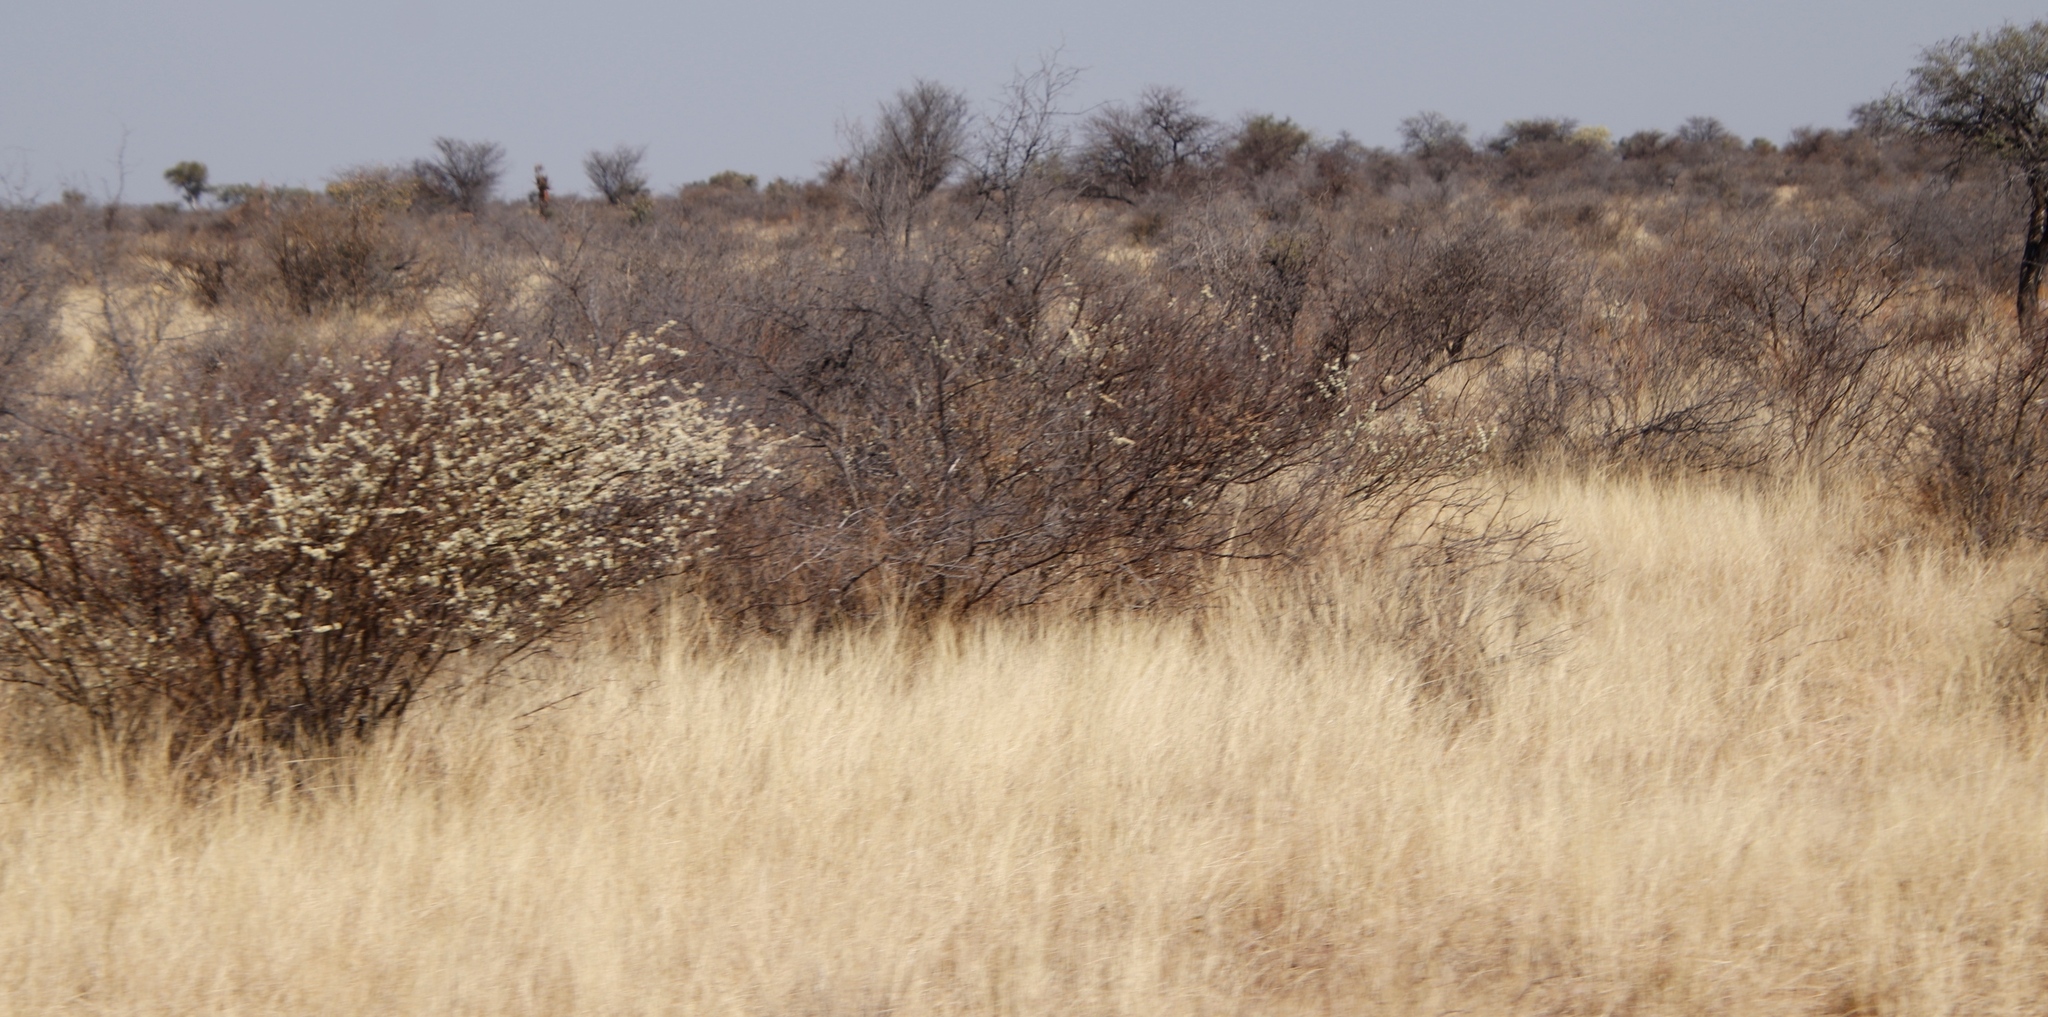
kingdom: Plantae
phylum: Tracheophyta
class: Magnoliopsida
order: Fabales
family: Fabaceae
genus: Senegalia
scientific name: Senegalia mellifera
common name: Hookthorn
